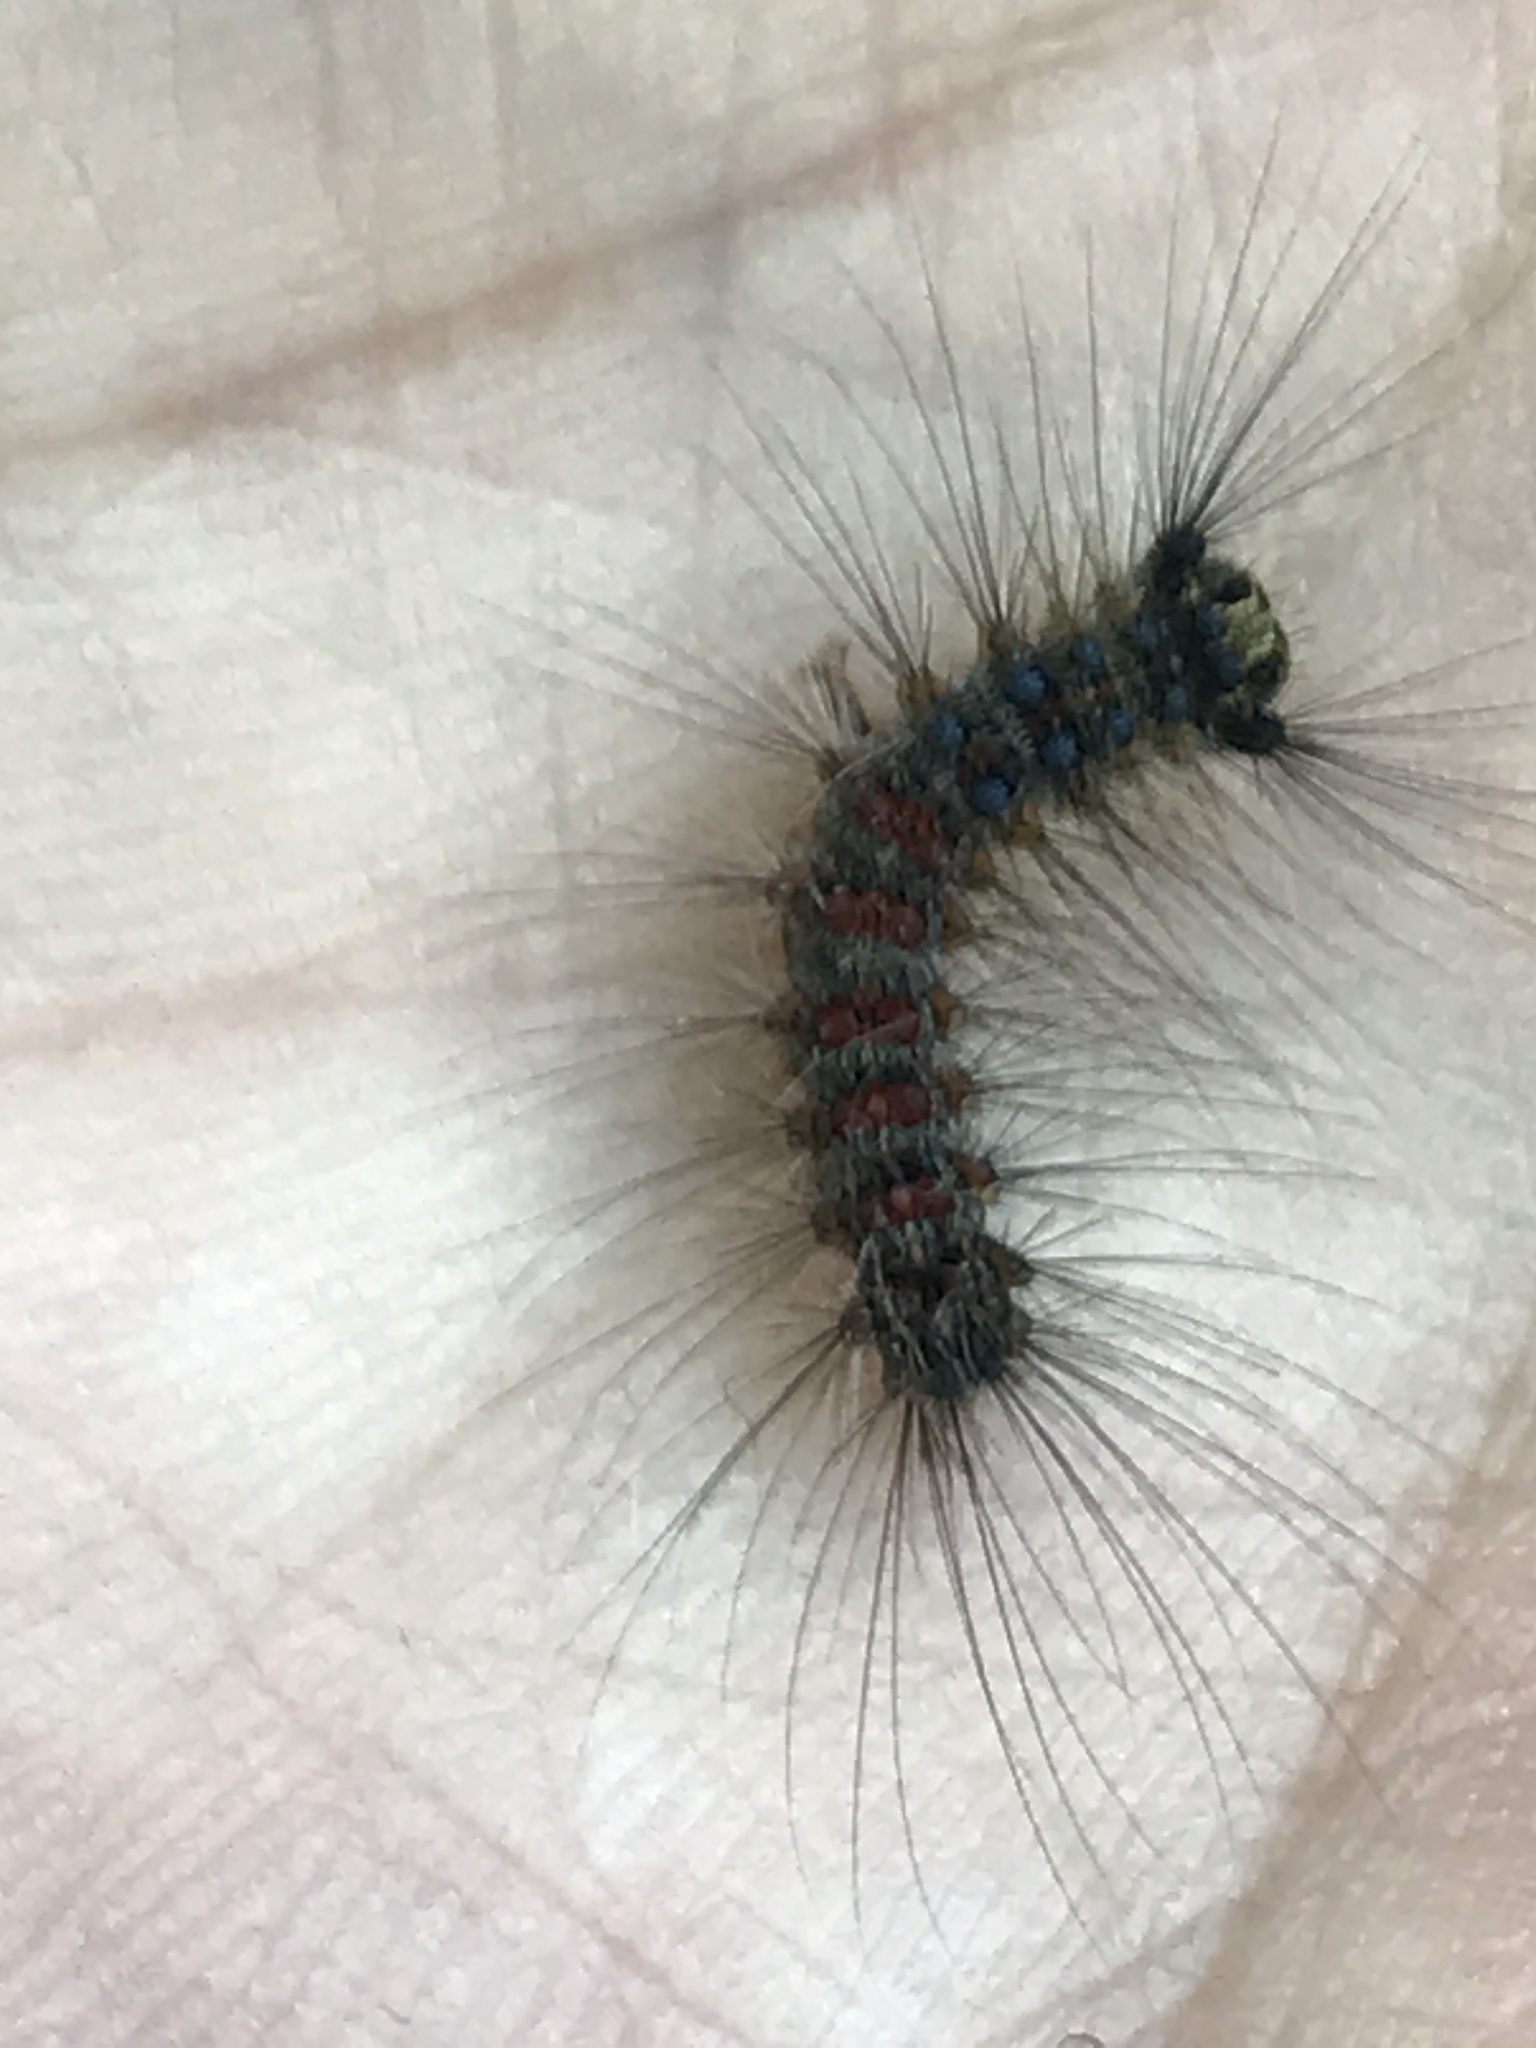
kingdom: Animalia
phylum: Arthropoda
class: Insecta
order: Lepidoptera
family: Erebidae
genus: Lymantria
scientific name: Lymantria dispar
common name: Gypsy moth
